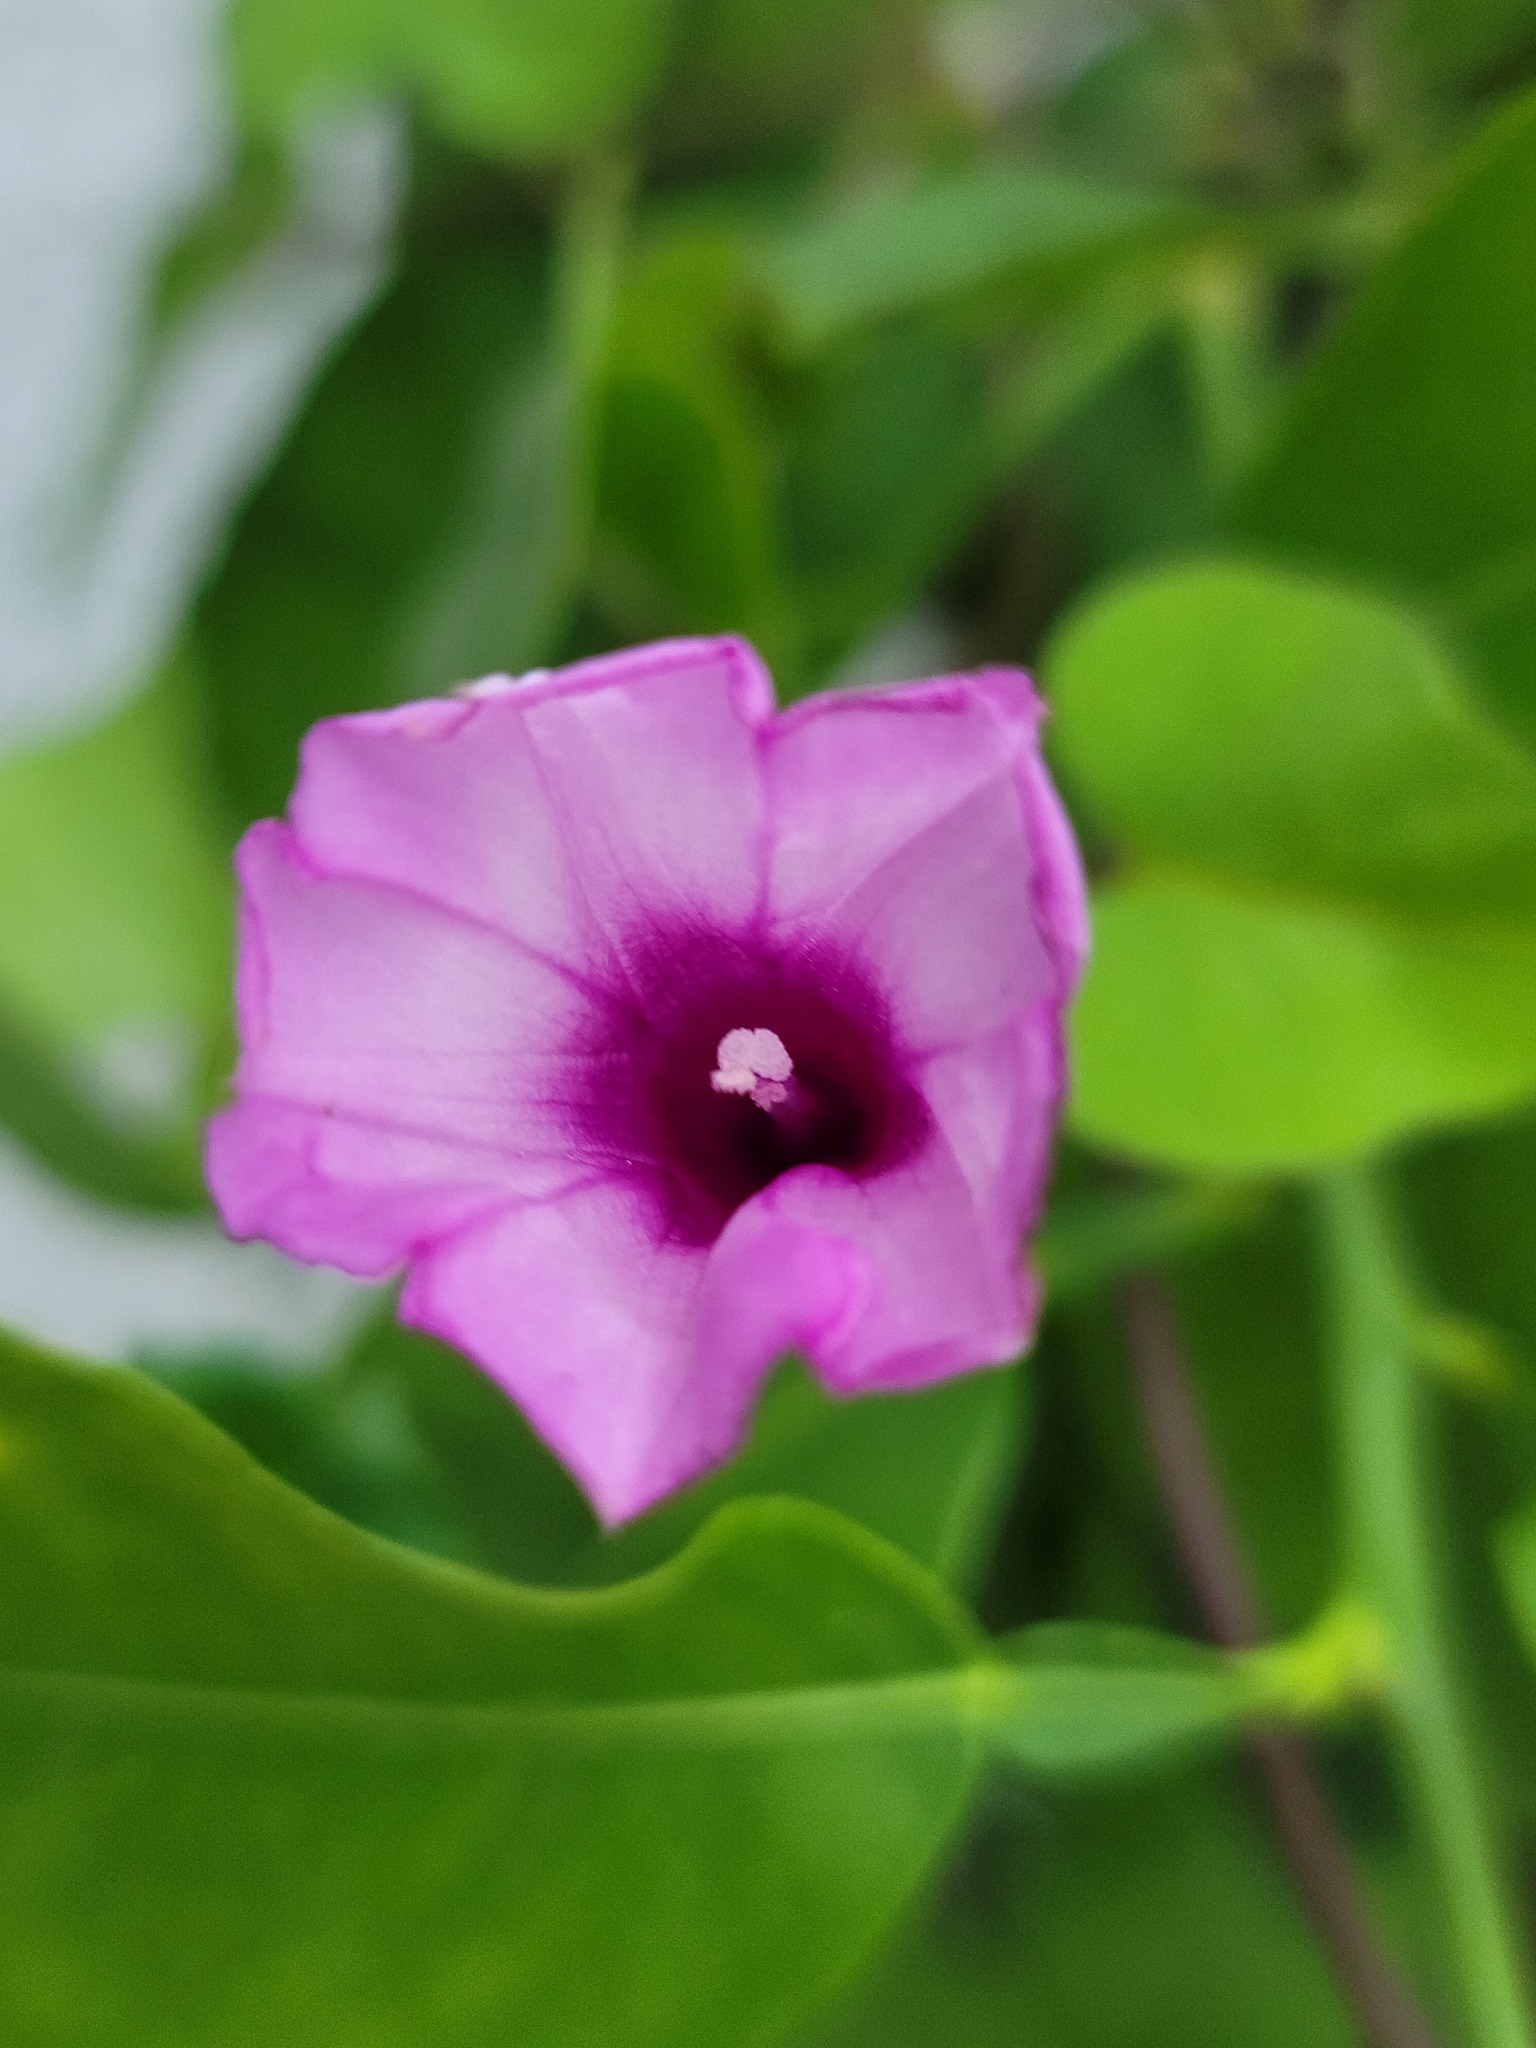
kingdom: Plantae
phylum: Tracheophyta
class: Magnoliopsida
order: Solanales
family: Convolvulaceae
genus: Ipomoea
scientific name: Ipomoea triloba
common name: Little-bell
